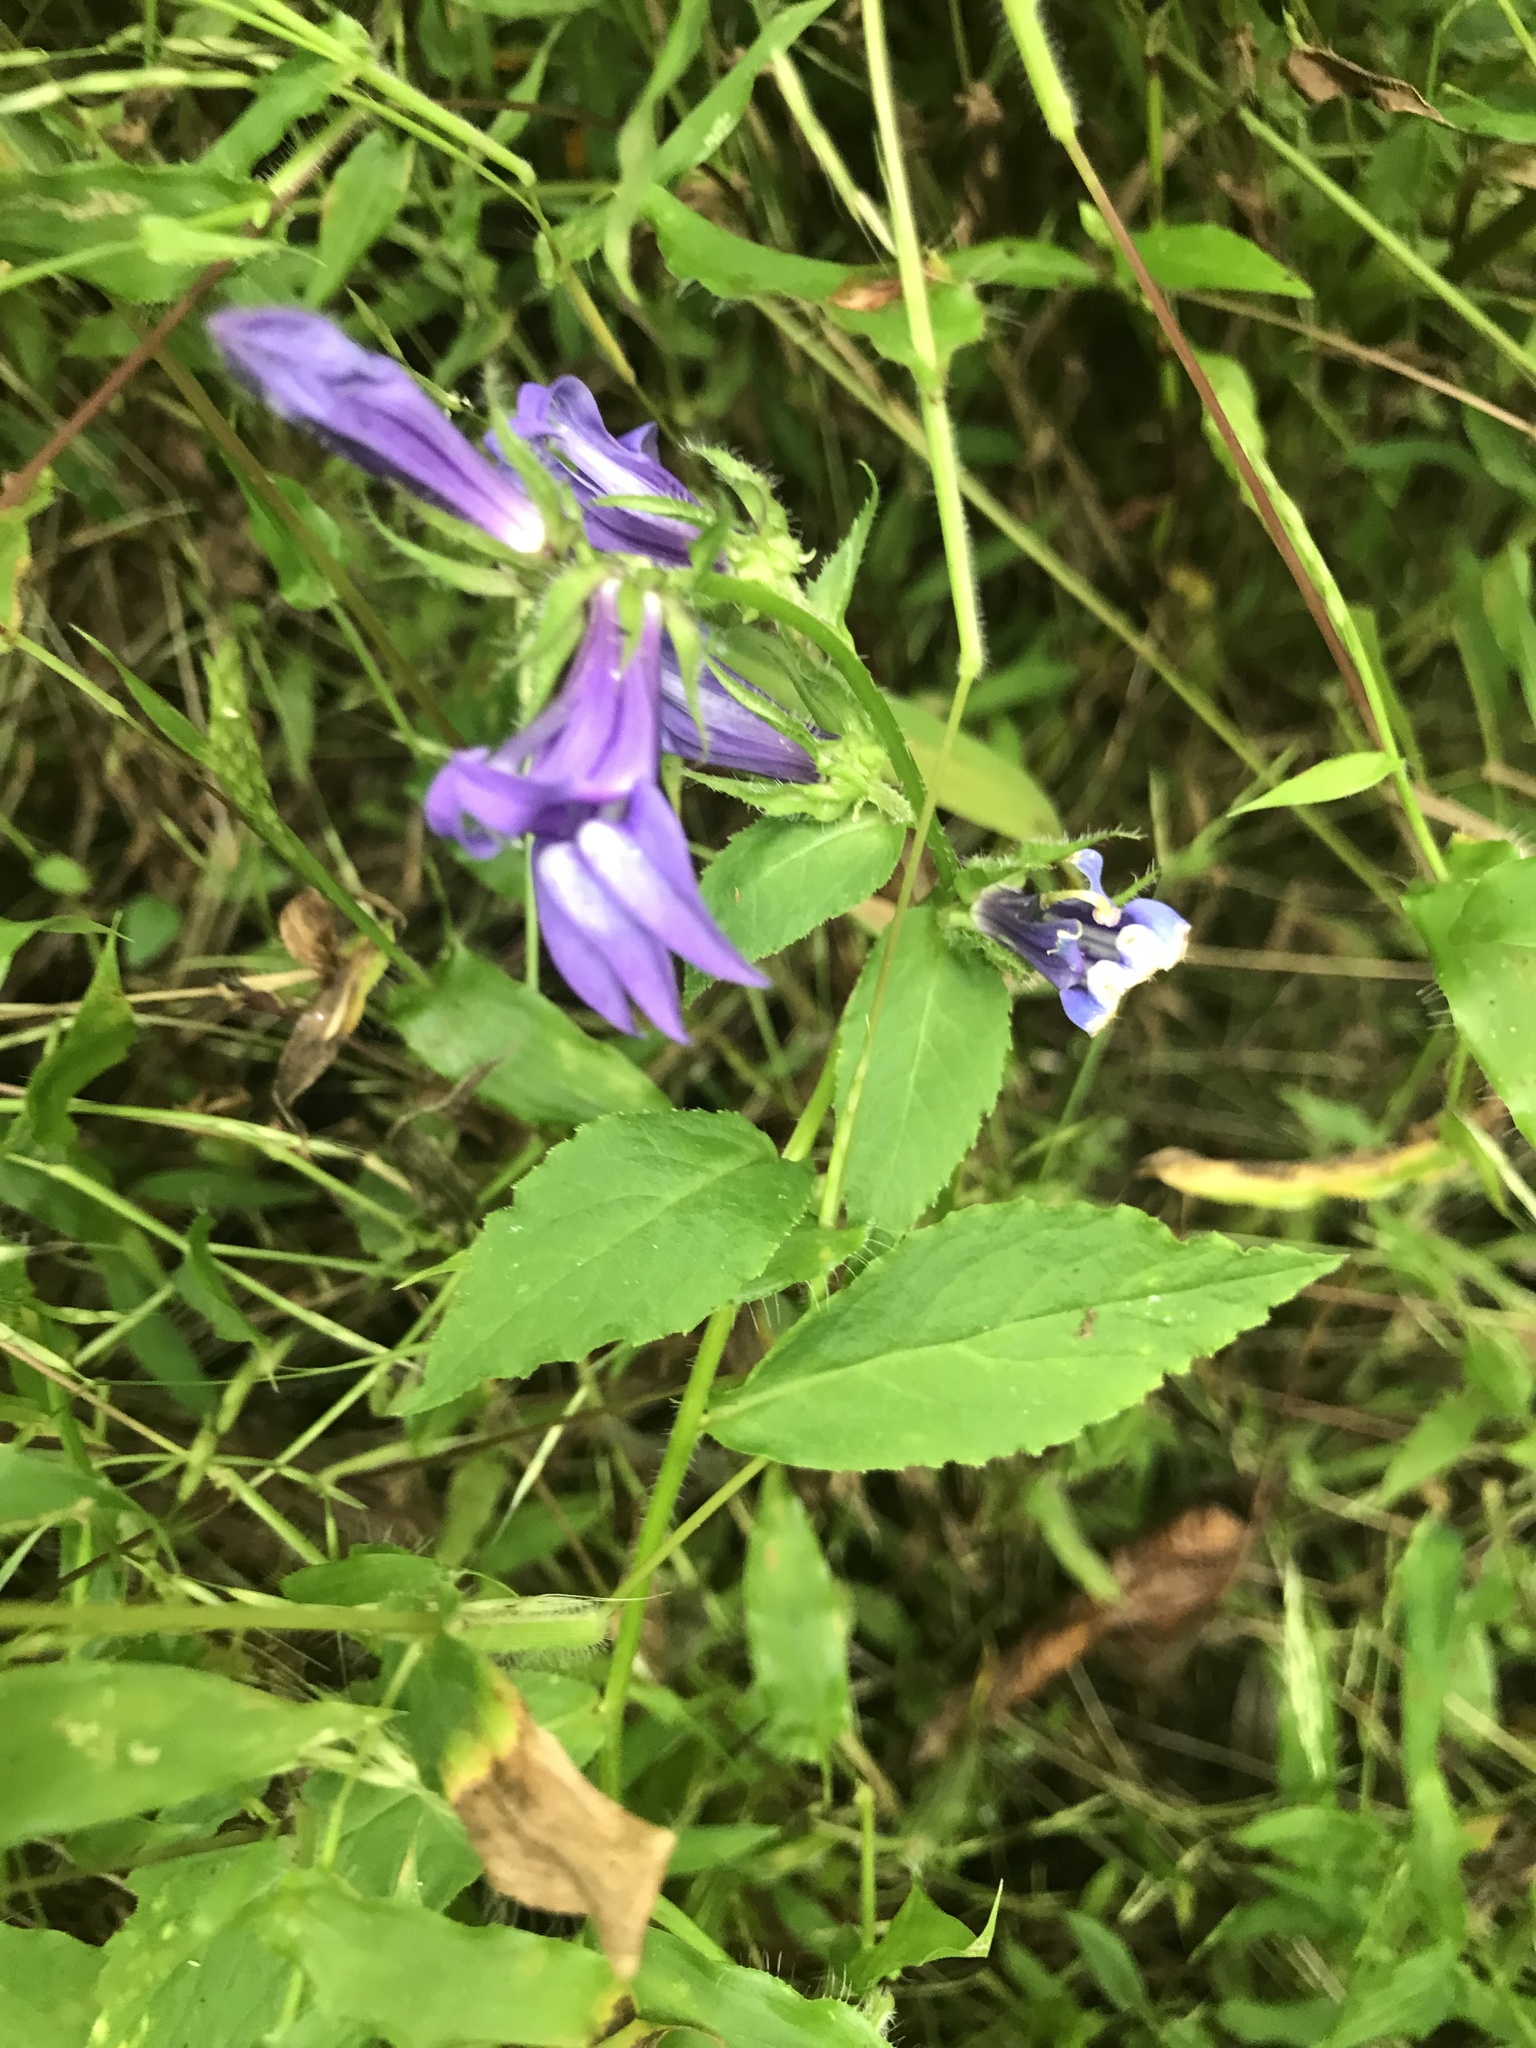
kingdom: Plantae
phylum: Tracheophyta
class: Magnoliopsida
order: Asterales
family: Campanulaceae
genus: Lobelia
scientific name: Lobelia siphilitica
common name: Great lobelia
